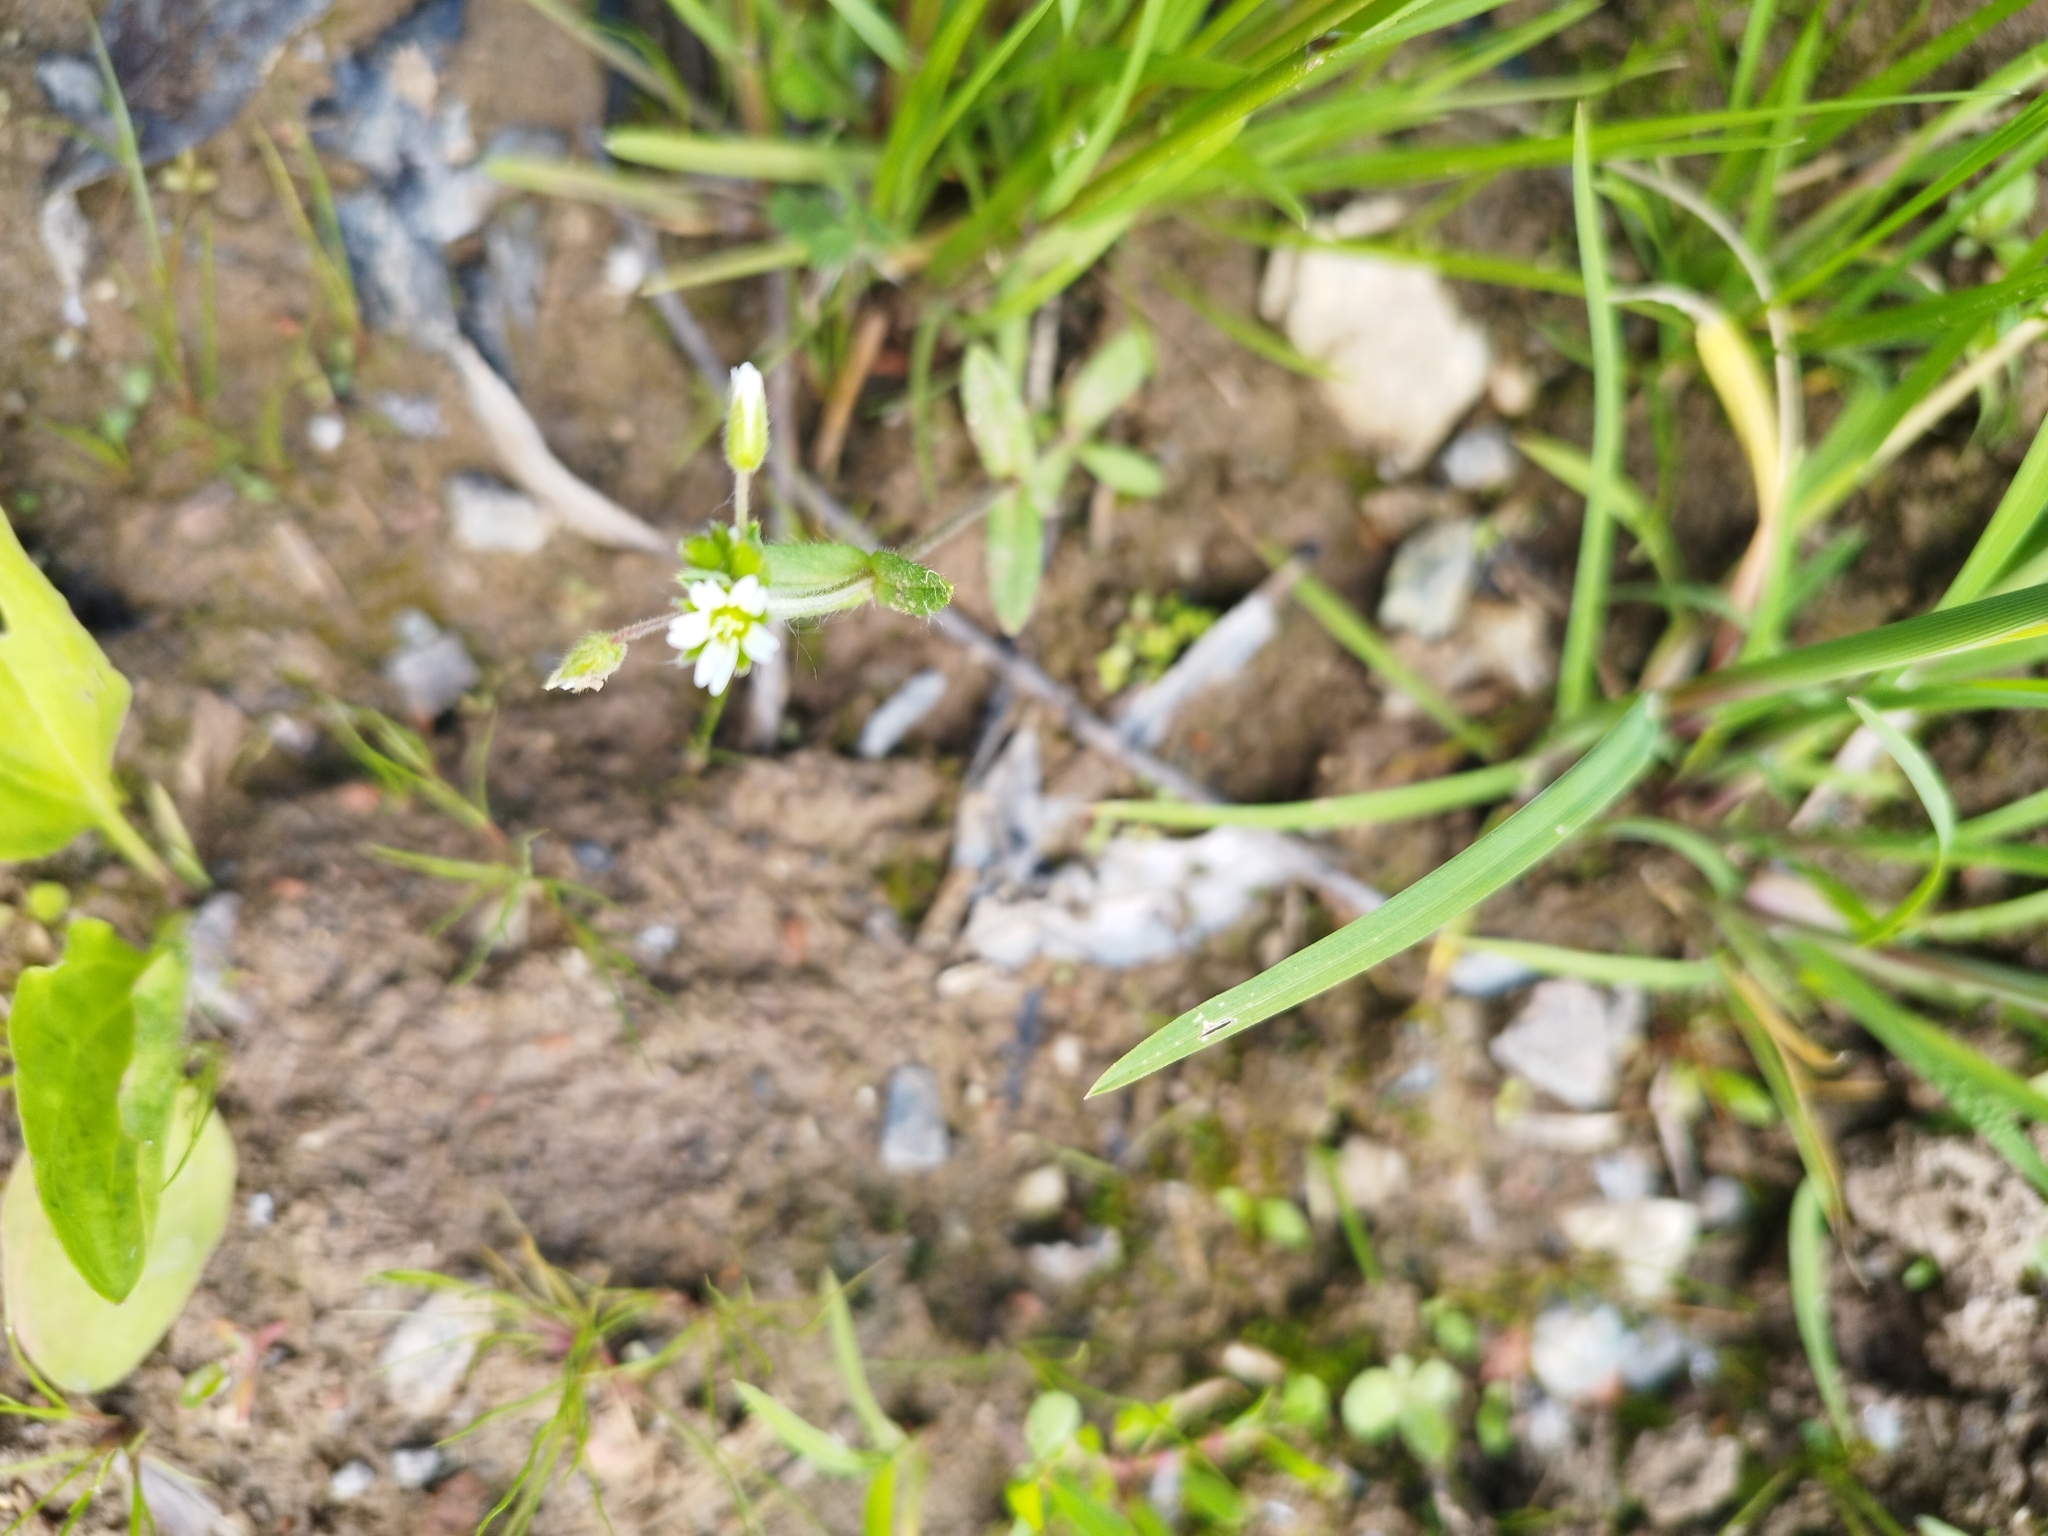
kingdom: Plantae
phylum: Tracheophyta
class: Magnoliopsida
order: Caryophyllales
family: Caryophyllaceae
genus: Cerastium
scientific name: Cerastium holosteoides
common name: Big chickweed
